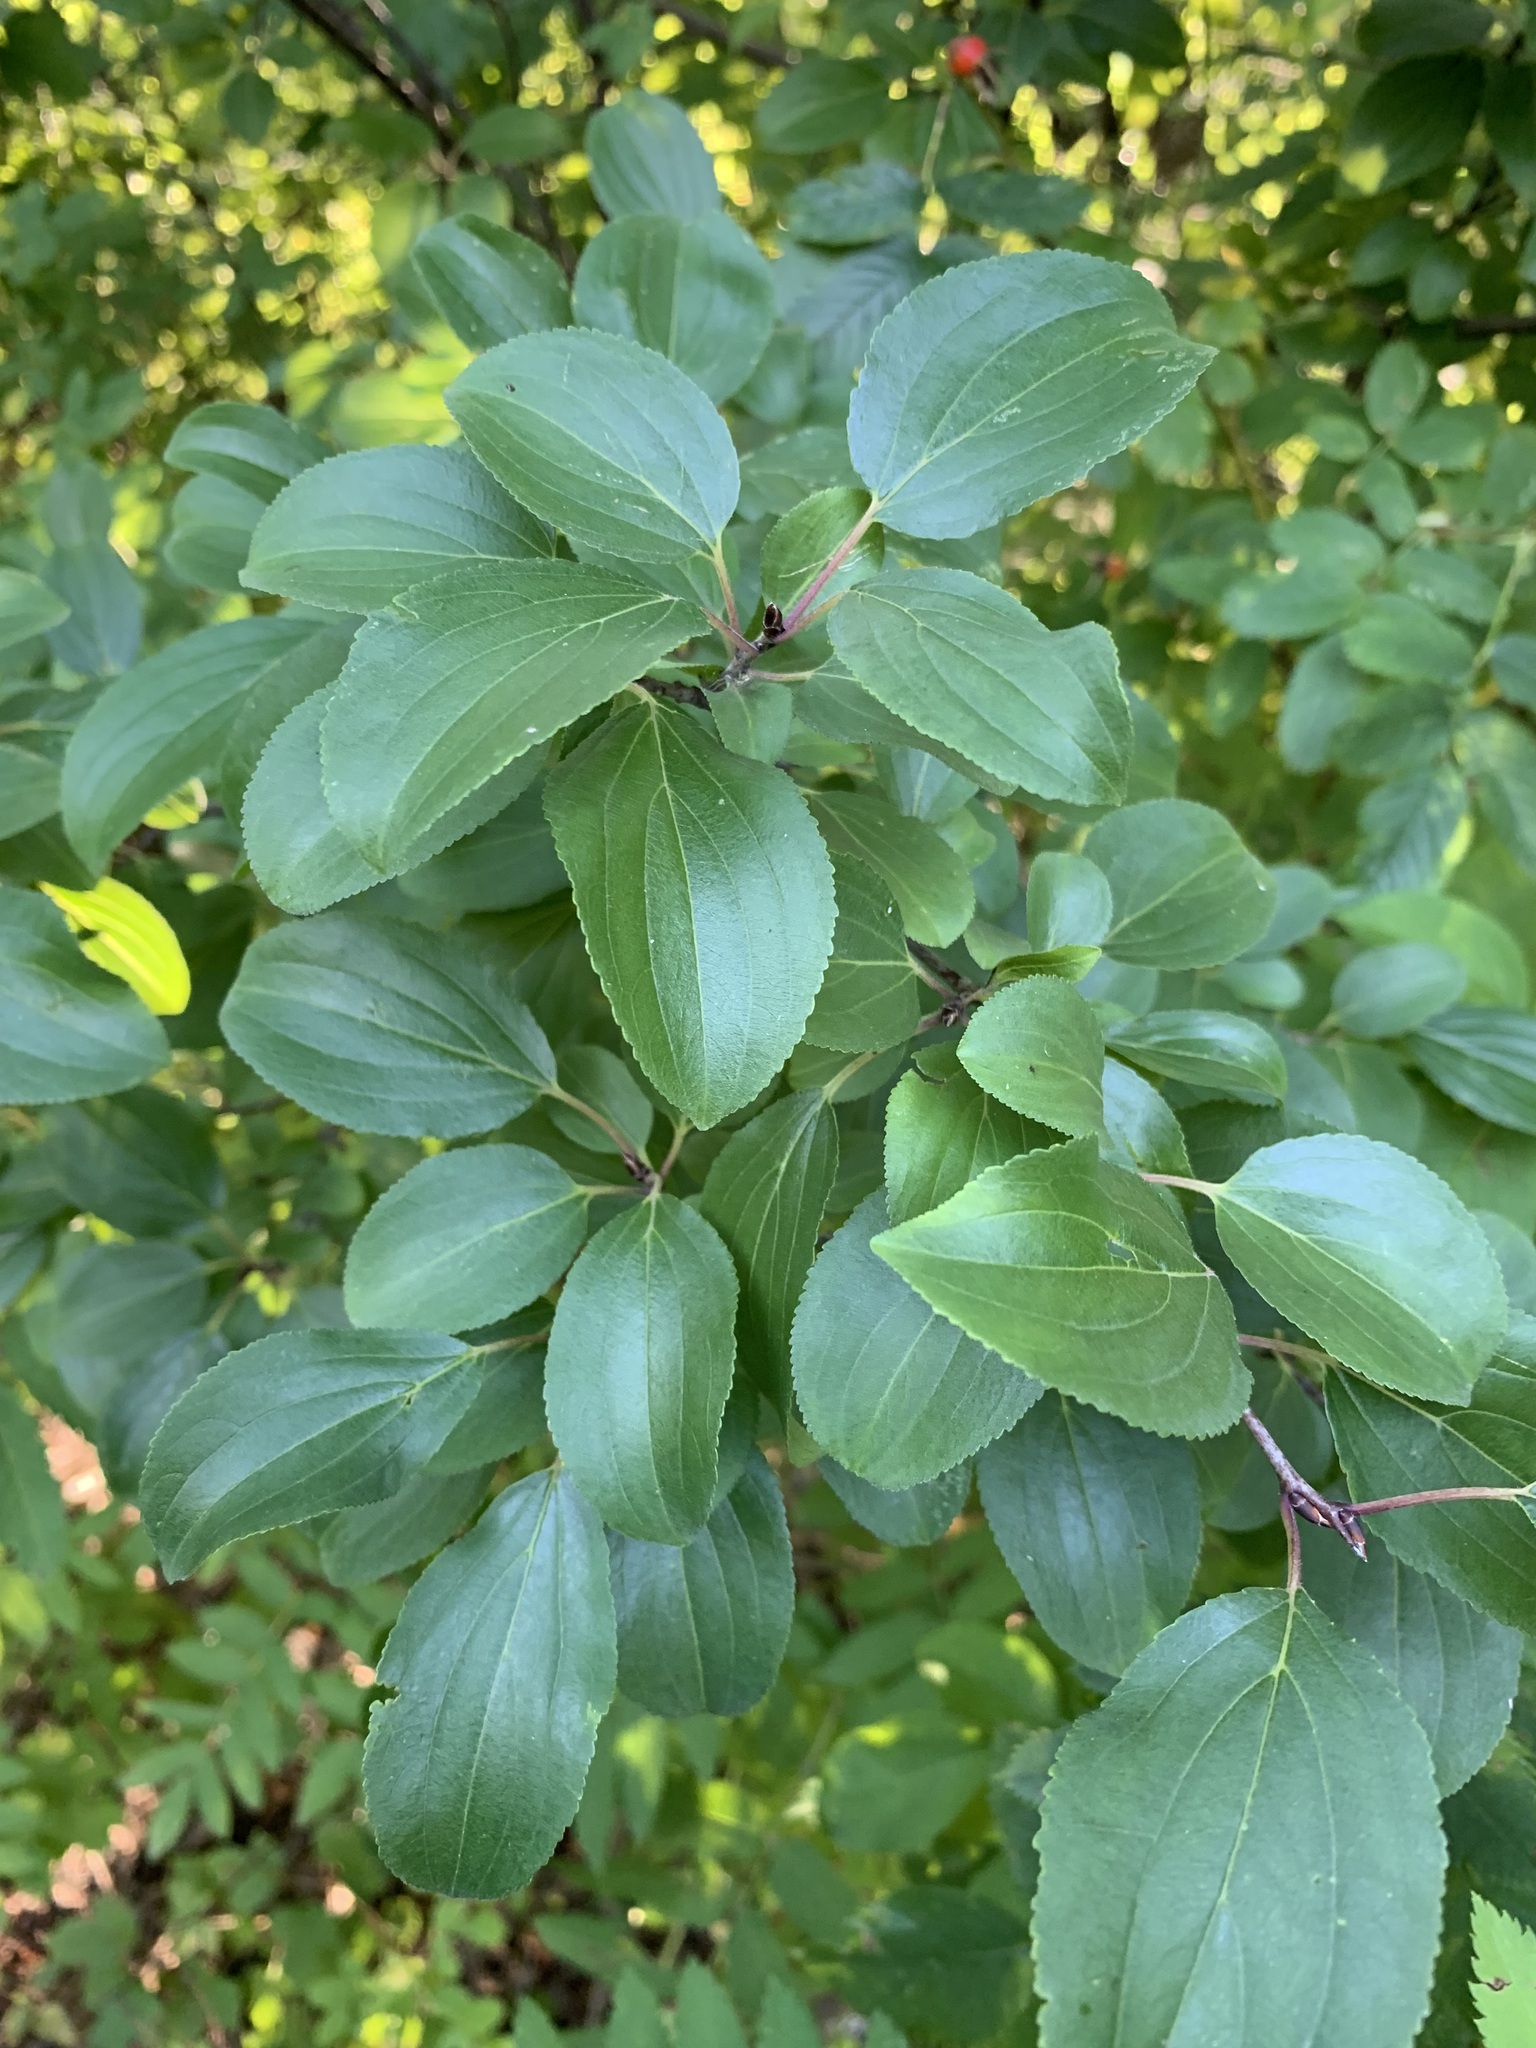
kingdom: Plantae
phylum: Tracheophyta
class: Magnoliopsida
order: Rosales
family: Rhamnaceae
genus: Rhamnus
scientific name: Rhamnus cathartica
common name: Common buckthorn
